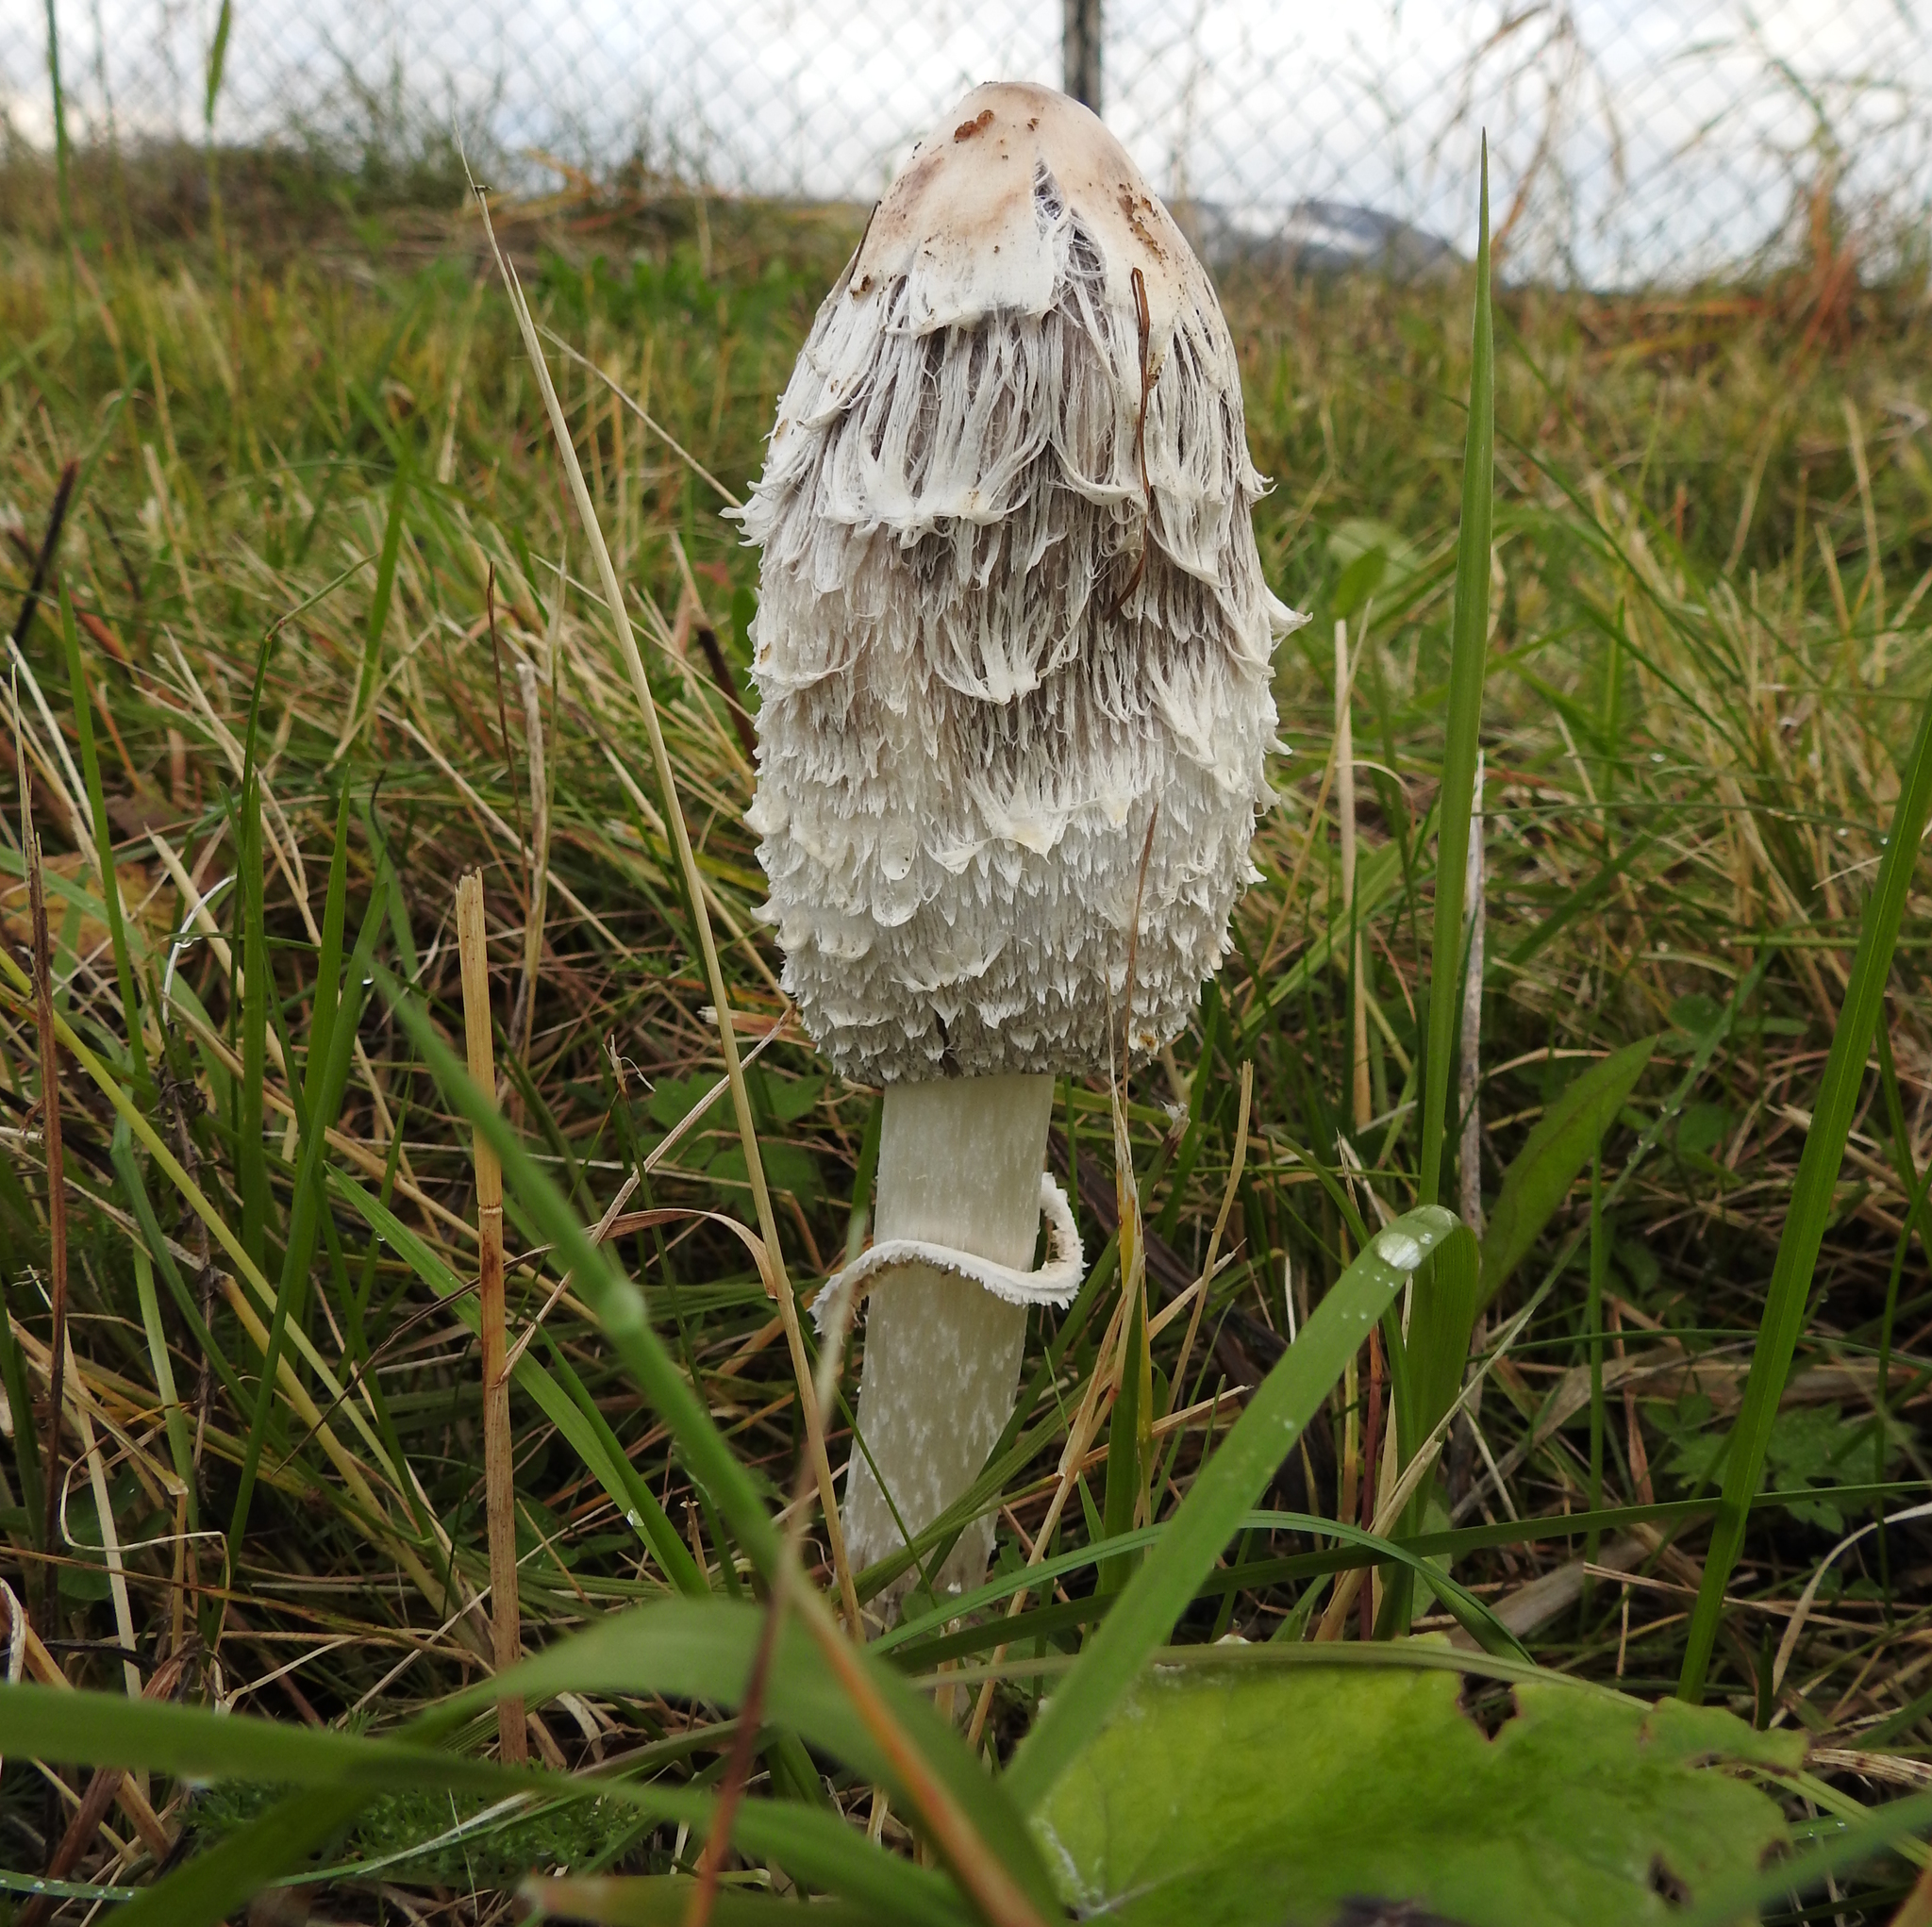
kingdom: Fungi
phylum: Basidiomycota
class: Agaricomycetes
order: Agaricales
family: Agaricaceae
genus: Coprinus
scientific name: Coprinus comatus
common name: Lawyer's wig
